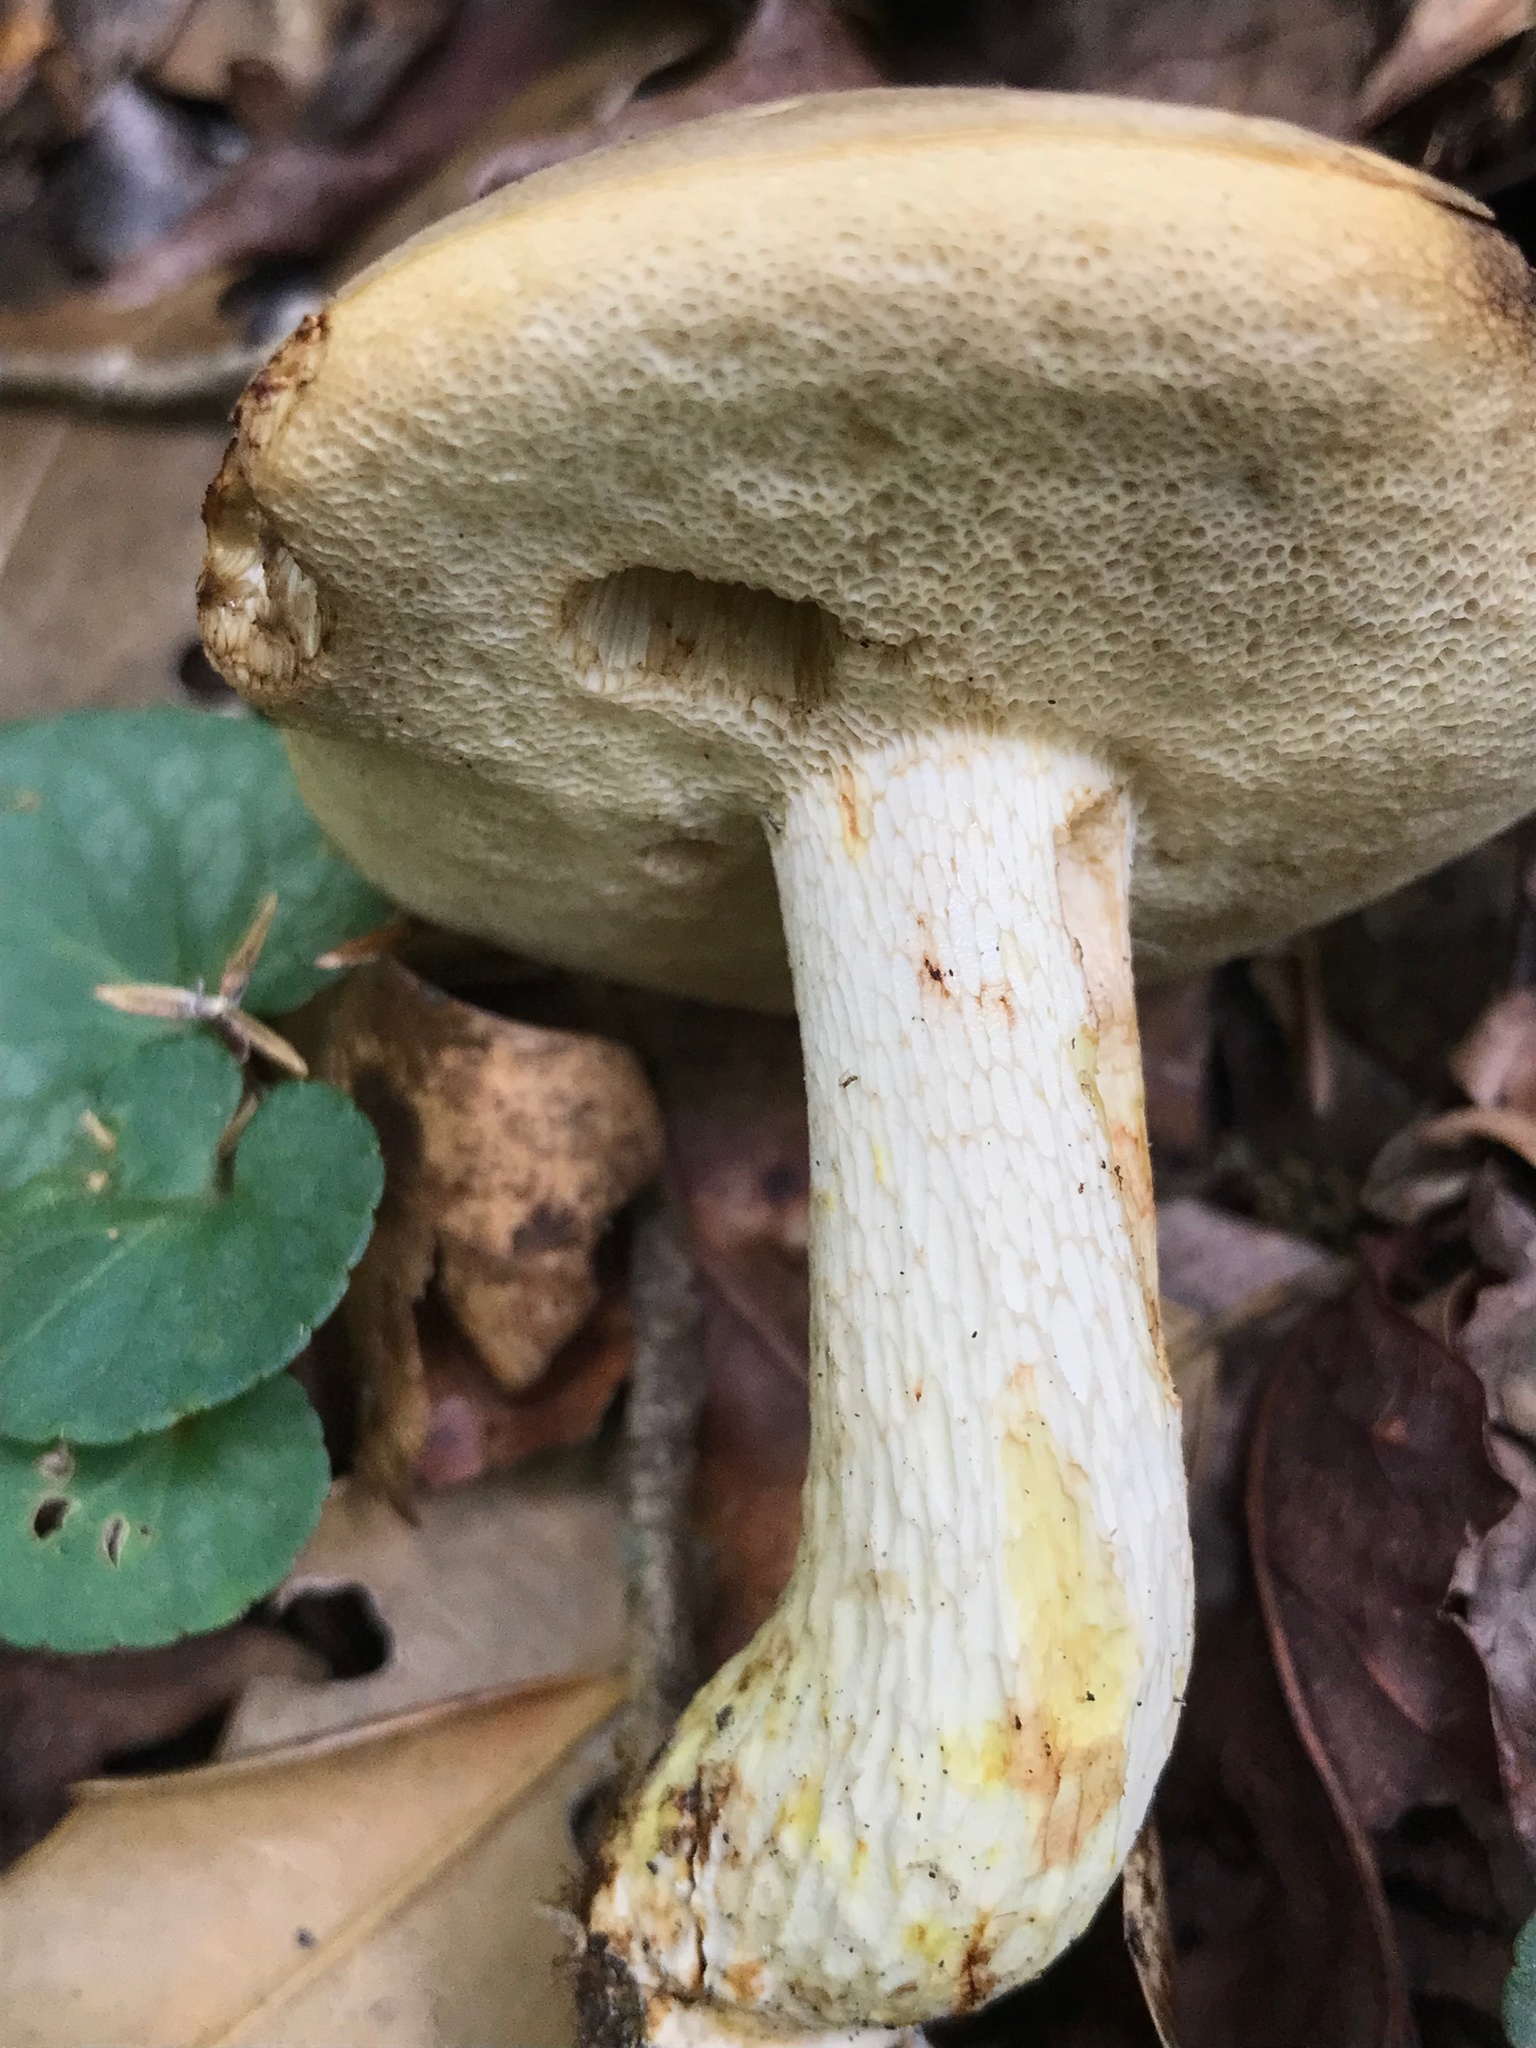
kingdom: Fungi
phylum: Basidiomycota
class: Agaricomycetes
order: Boletales
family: Boletaceae
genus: Retiboletus
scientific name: Retiboletus griseus
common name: Grey bolete
